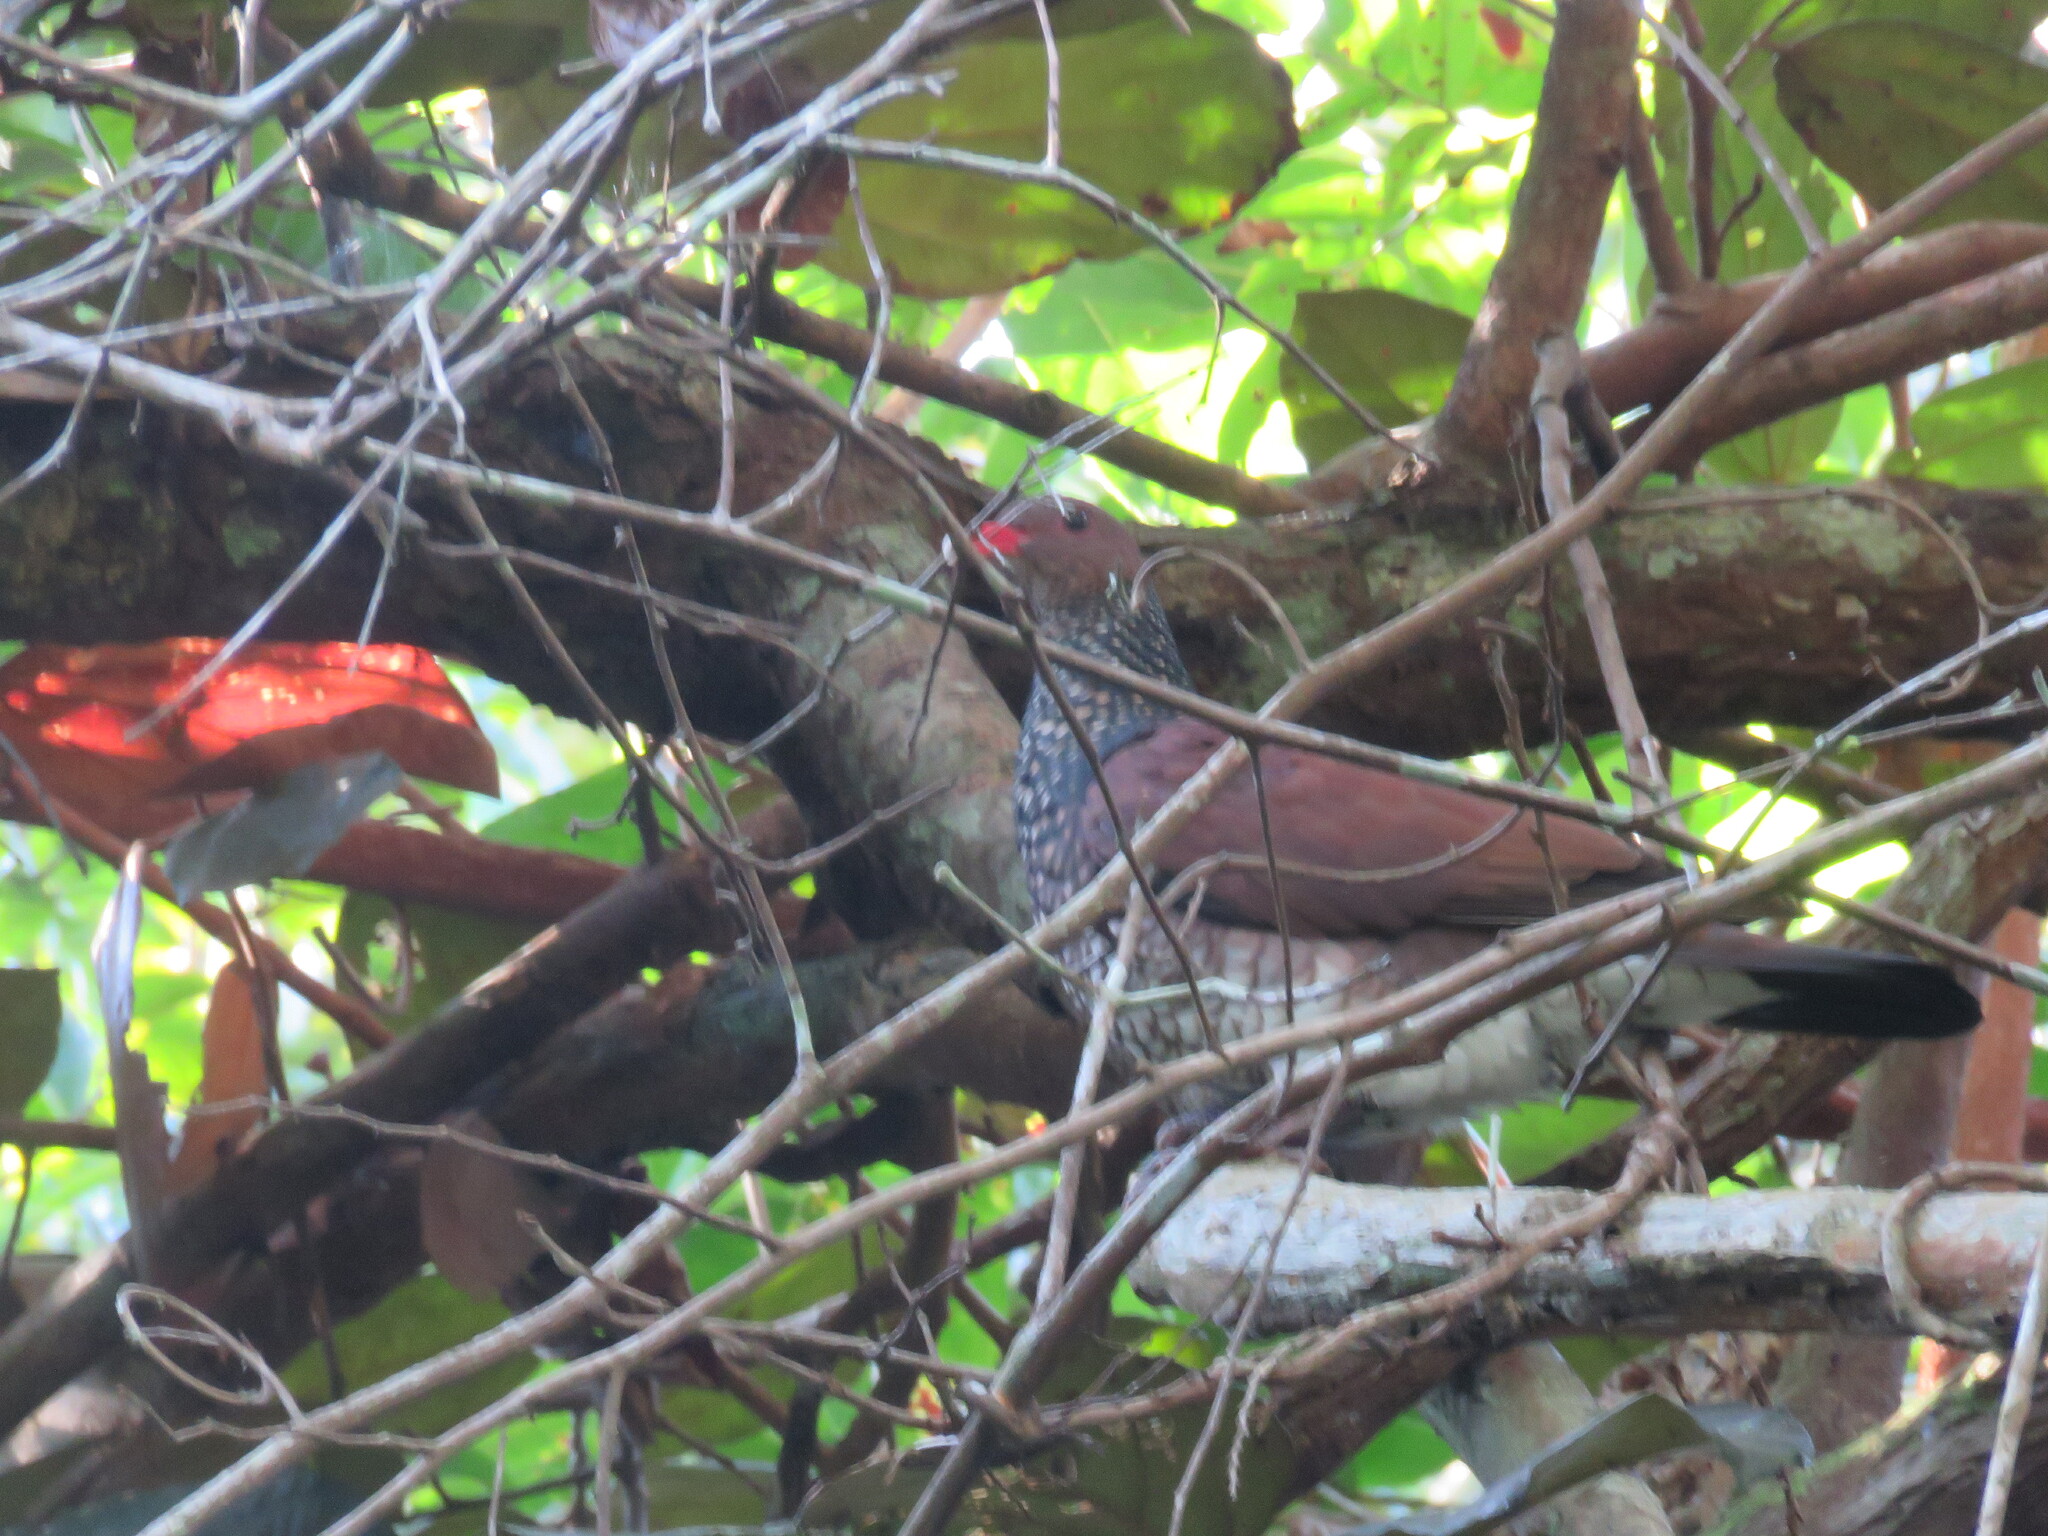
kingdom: Animalia
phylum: Chordata
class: Aves
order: Columbiformes
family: Columbidae
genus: Patagioenas
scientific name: Patagioenas speciosa
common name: Scaled pigeon
